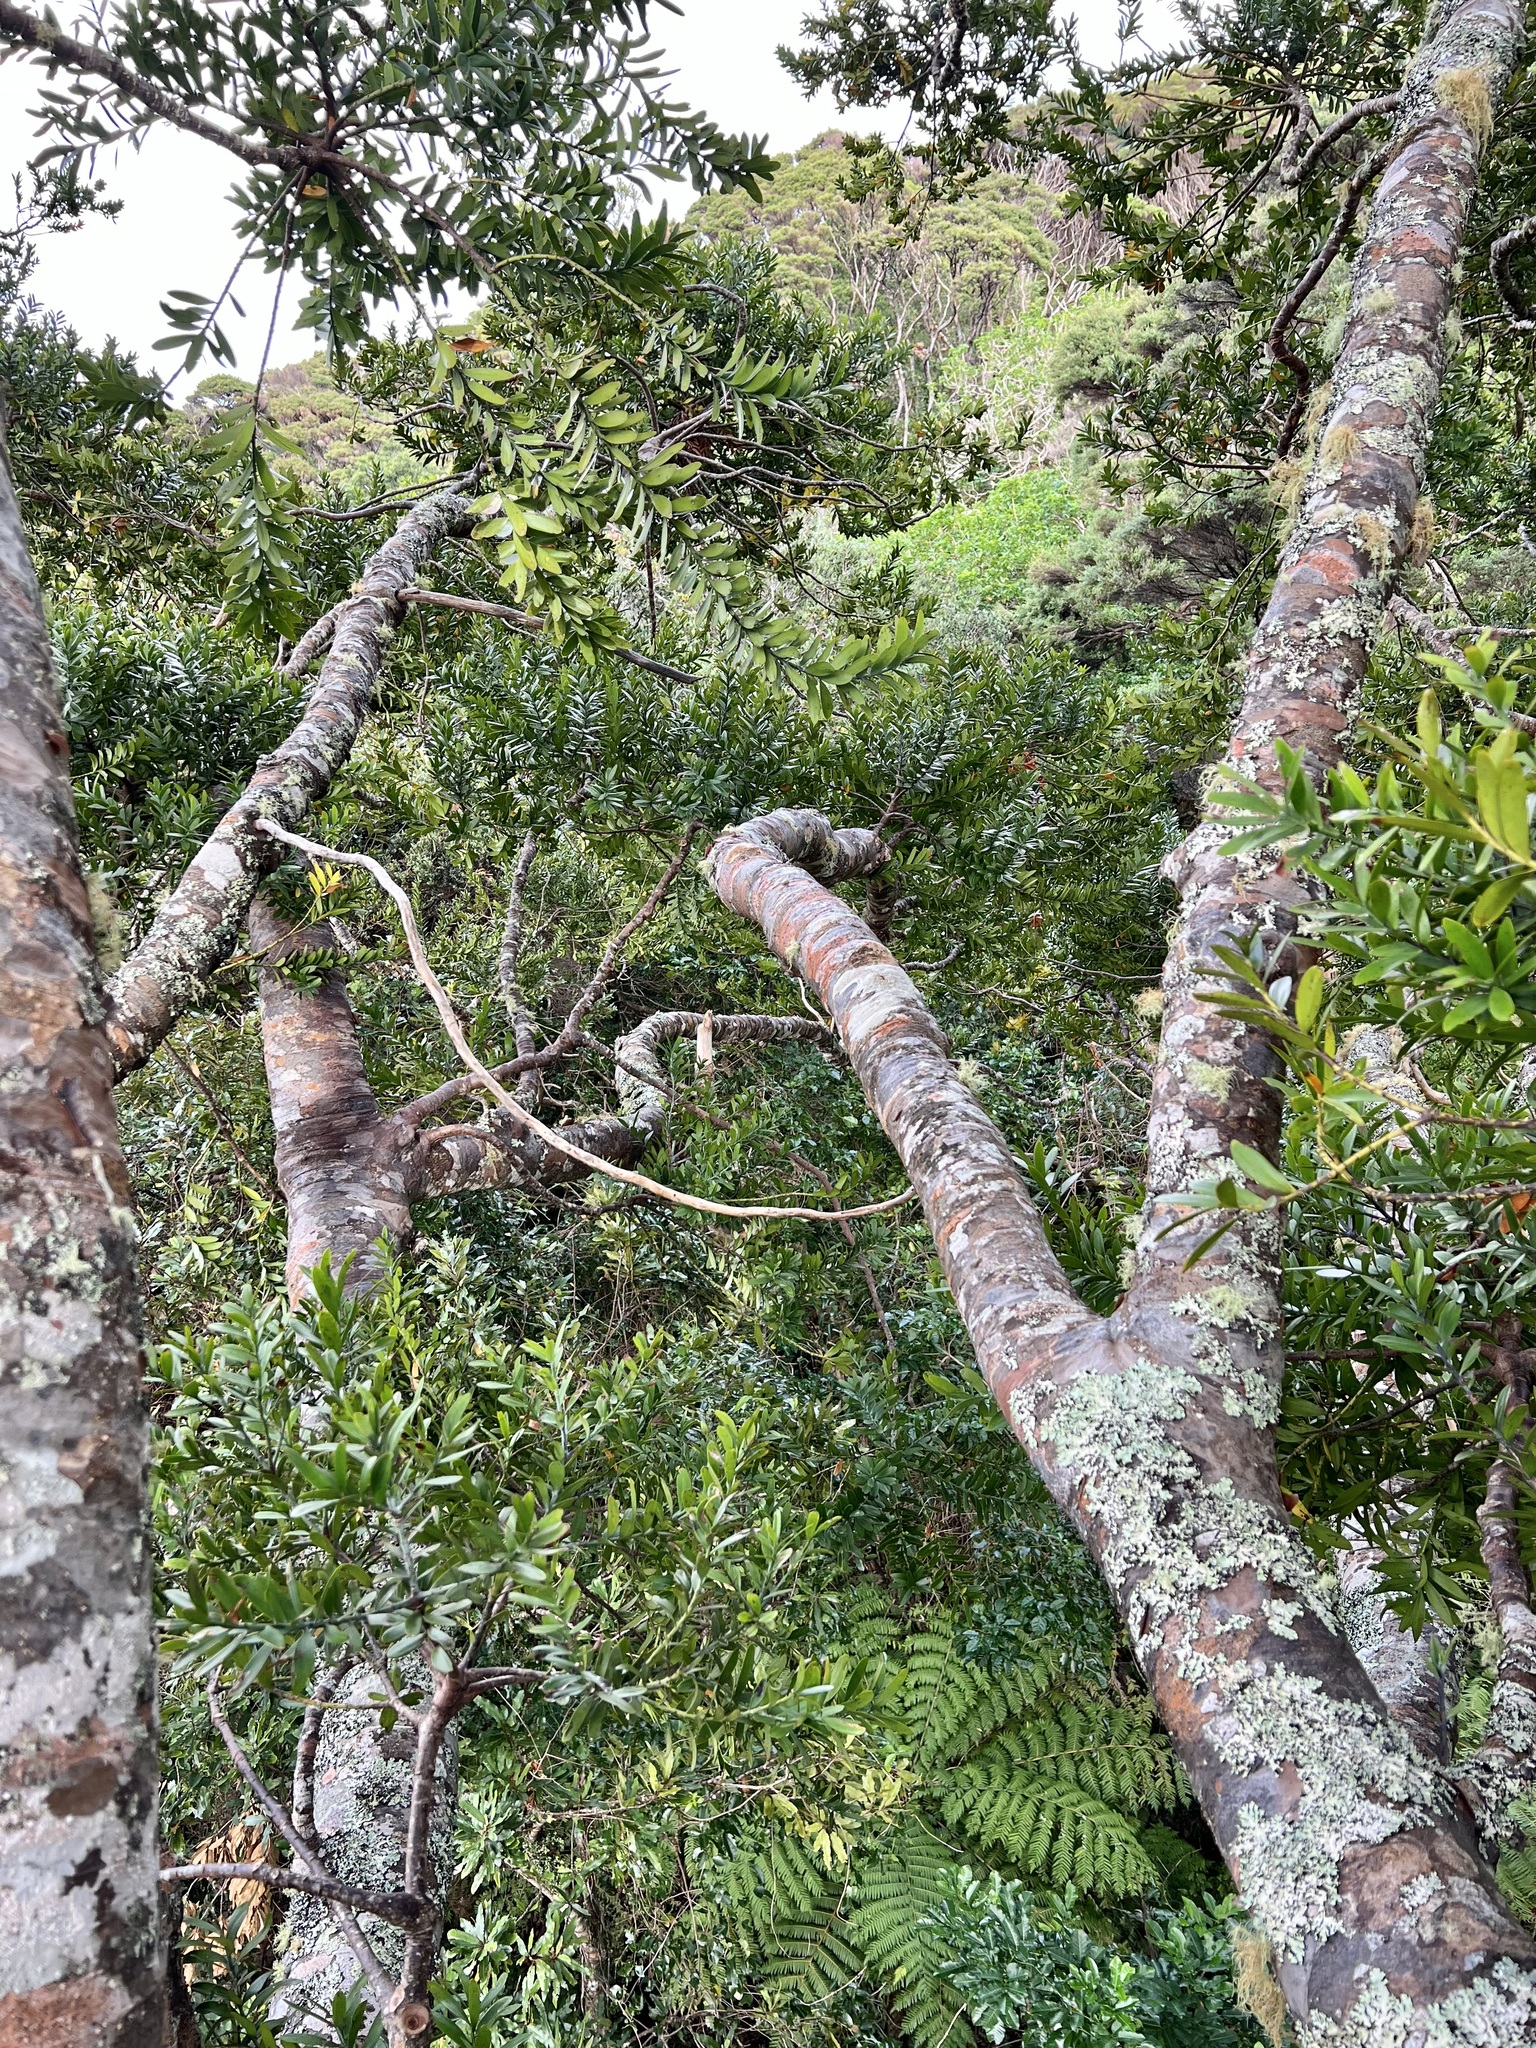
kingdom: Plantae
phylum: Tracheophyta
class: Pinopsida
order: Pinales
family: Araucariaceae
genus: Agathis
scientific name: Agathis australis
